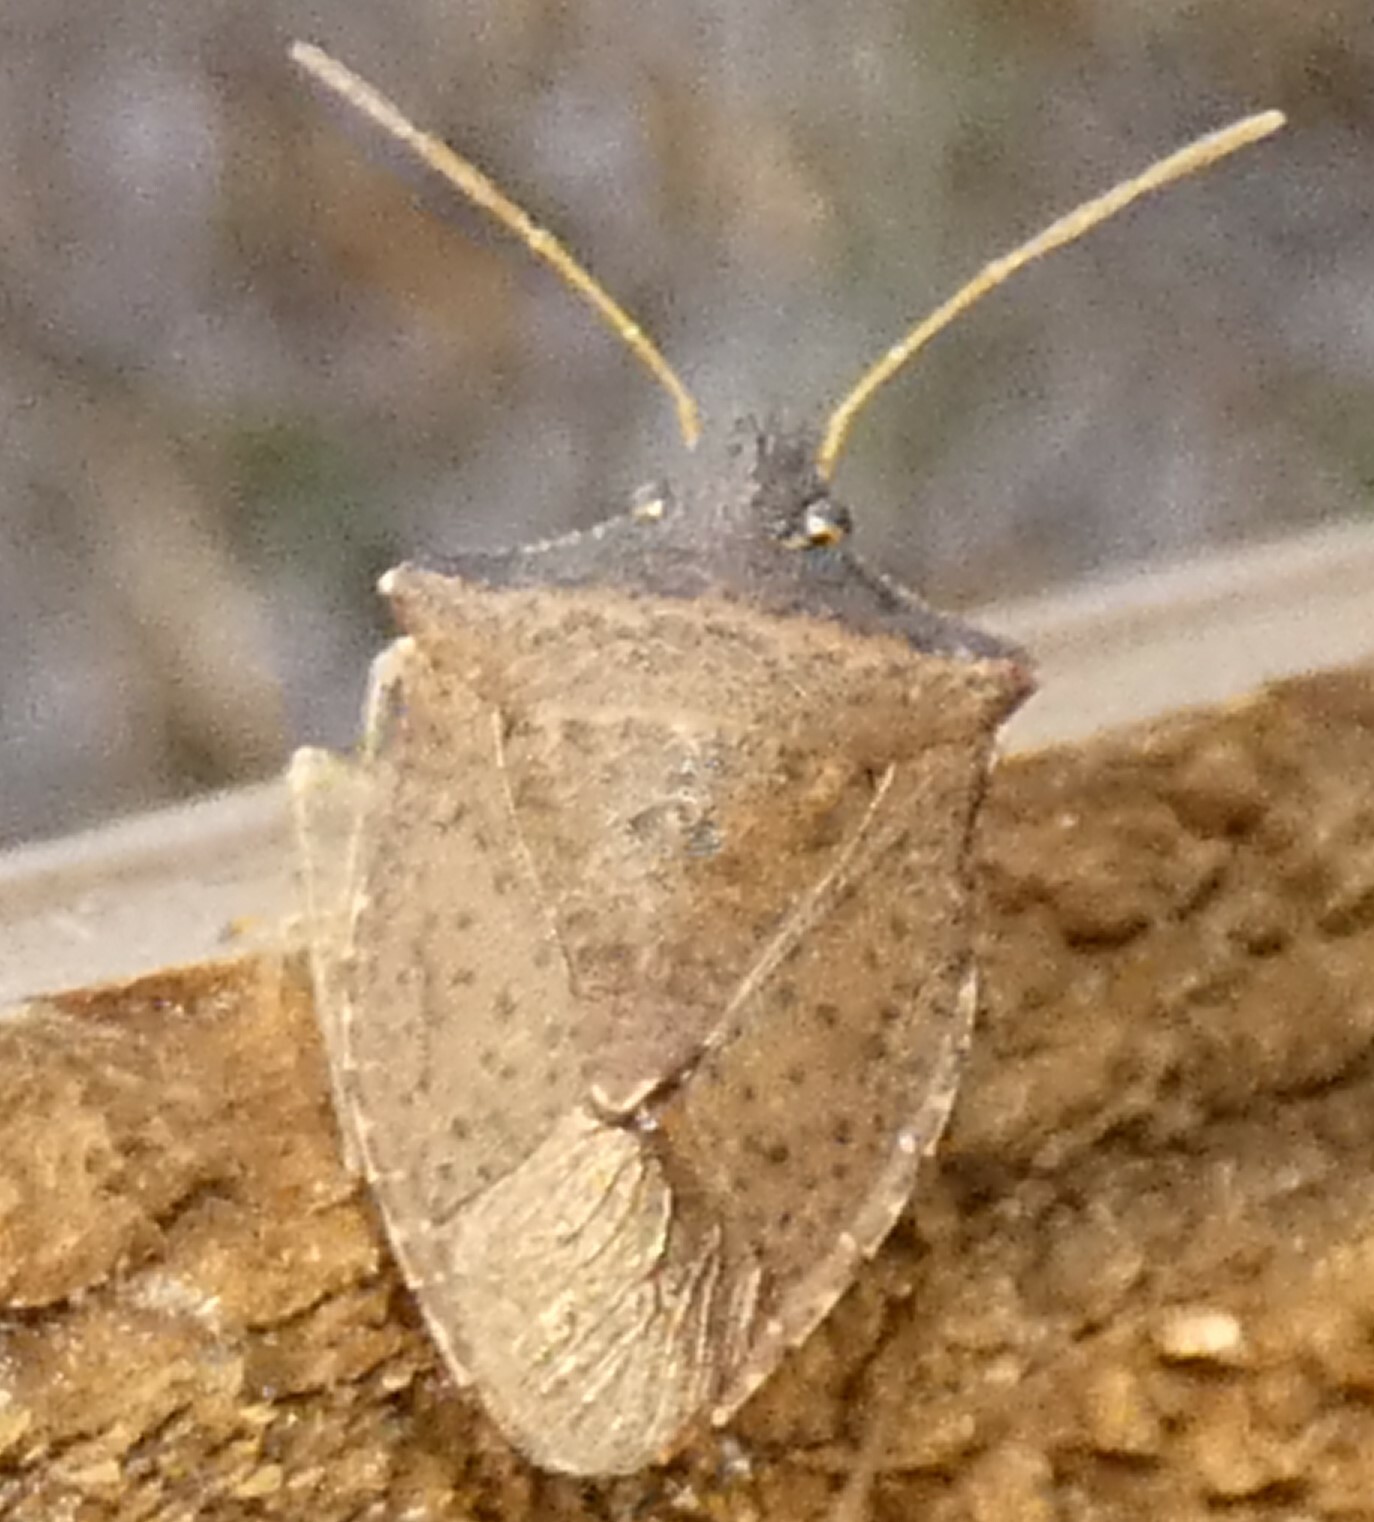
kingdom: Animalia
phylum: Arthropoda
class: Insecta
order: Hemiptera
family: Pentatomidae
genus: Euschistus
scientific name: Euschistus obscurus
